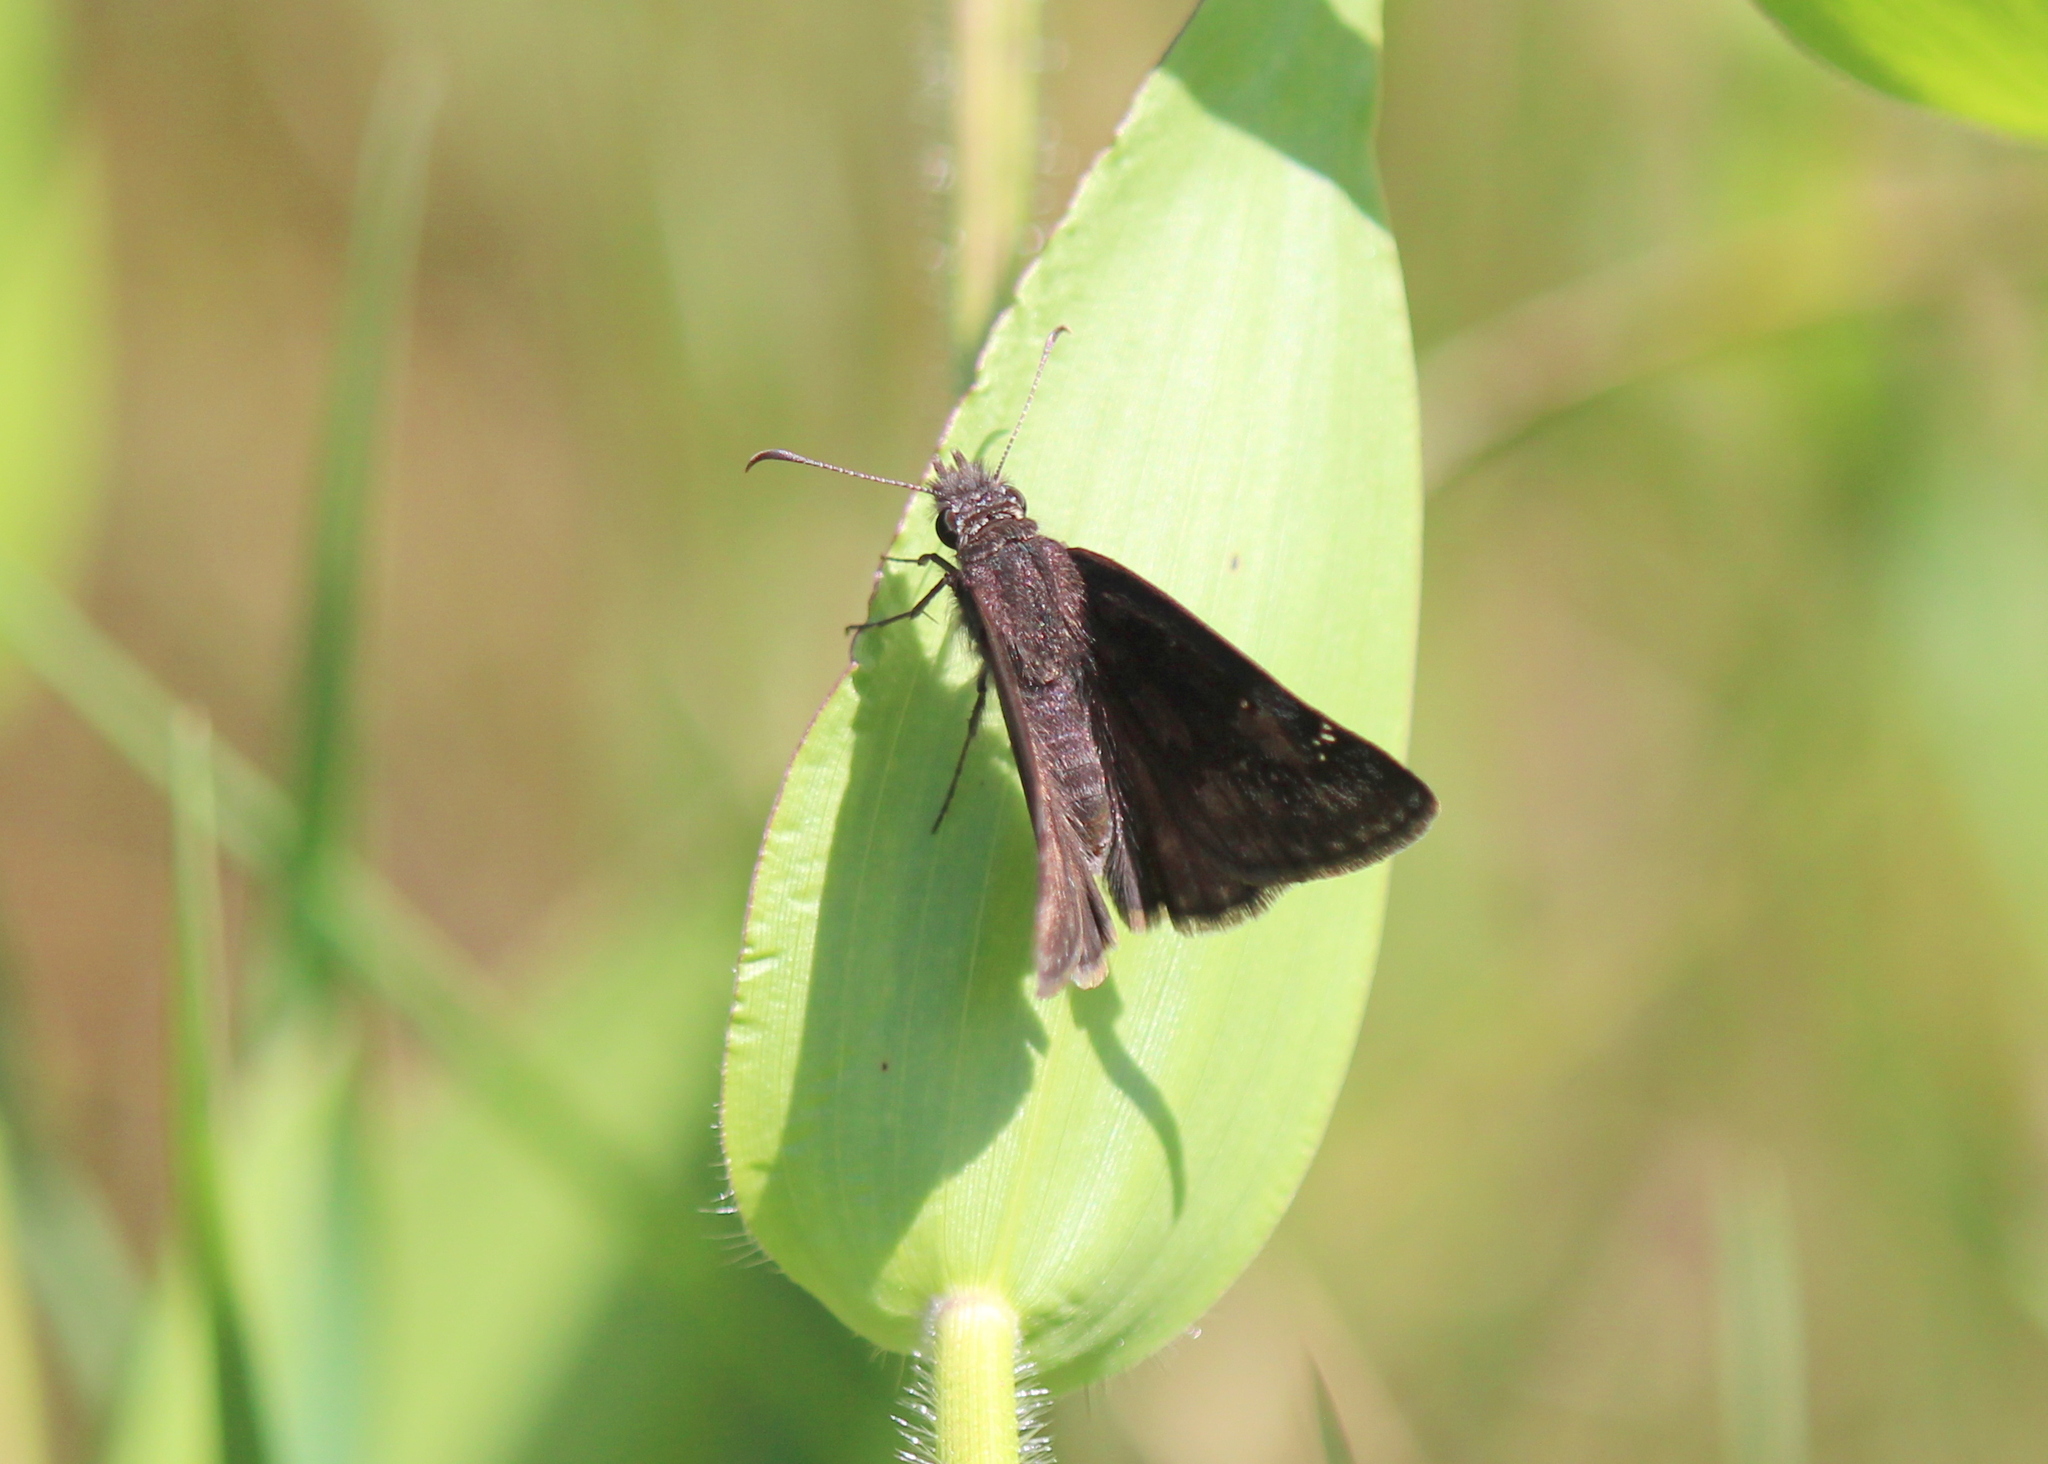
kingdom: Animalia
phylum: Arthropoda
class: Insecta
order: Lepidoptera
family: Hesperiidae
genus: Erynnis
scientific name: Erynnis baptisiae
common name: Wild indigo duskywing
